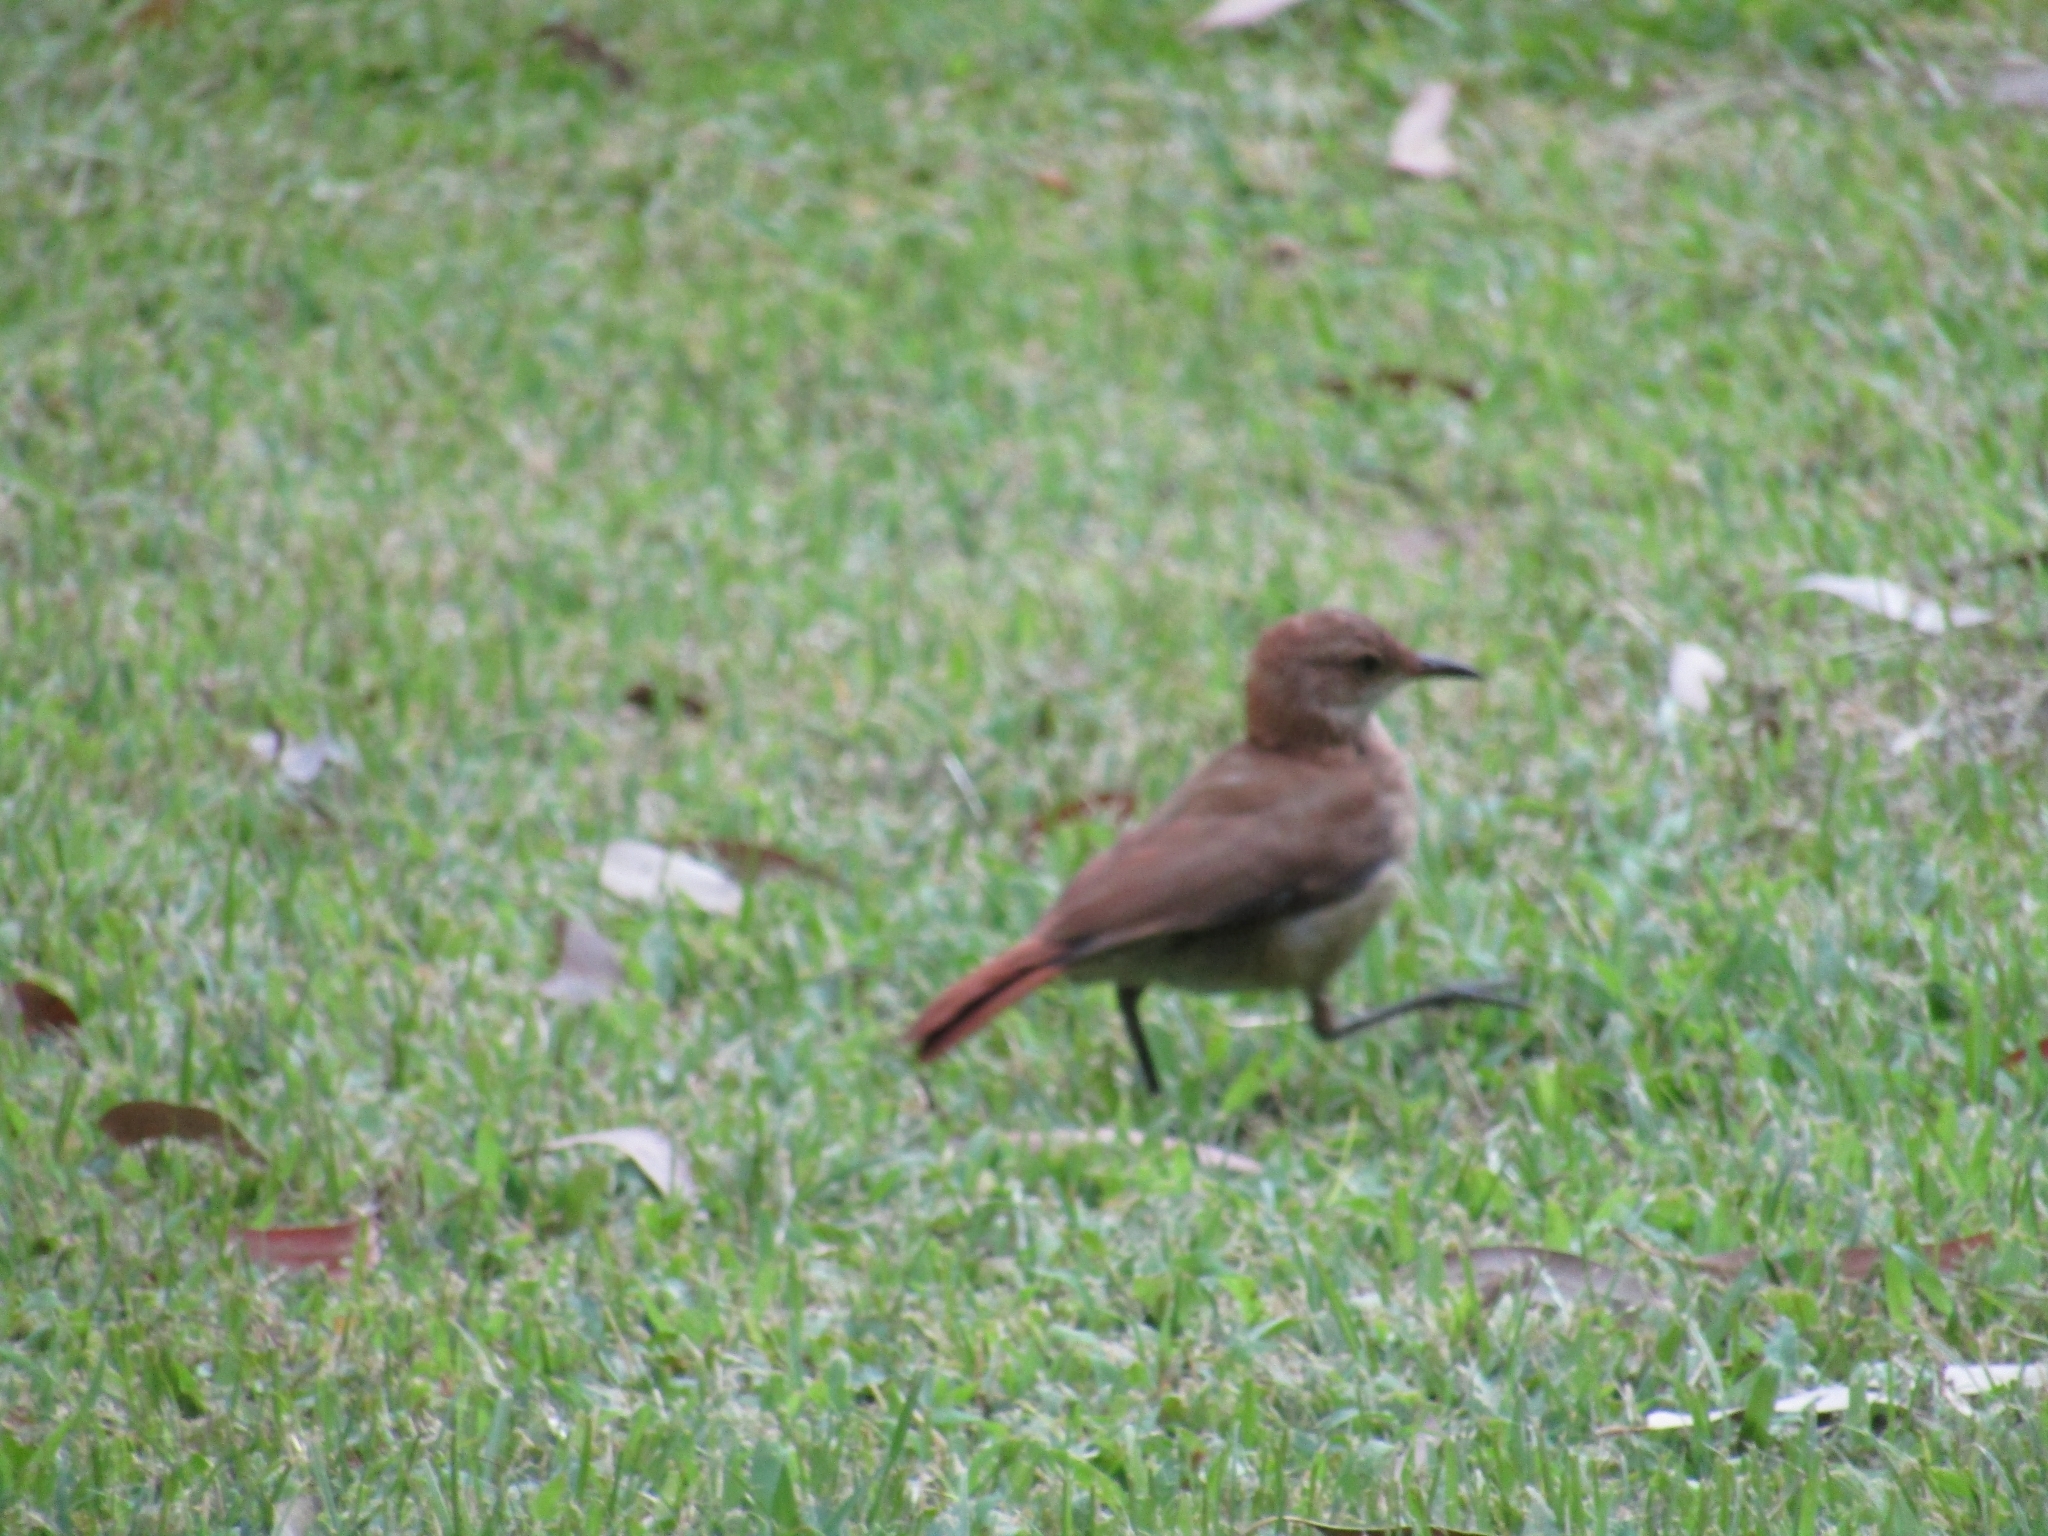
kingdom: Animalia
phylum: Chordata
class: Aves
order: Passeriformes
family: Furnariidae
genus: Furnarius
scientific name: Furnarius rufus
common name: Rufous hornero
